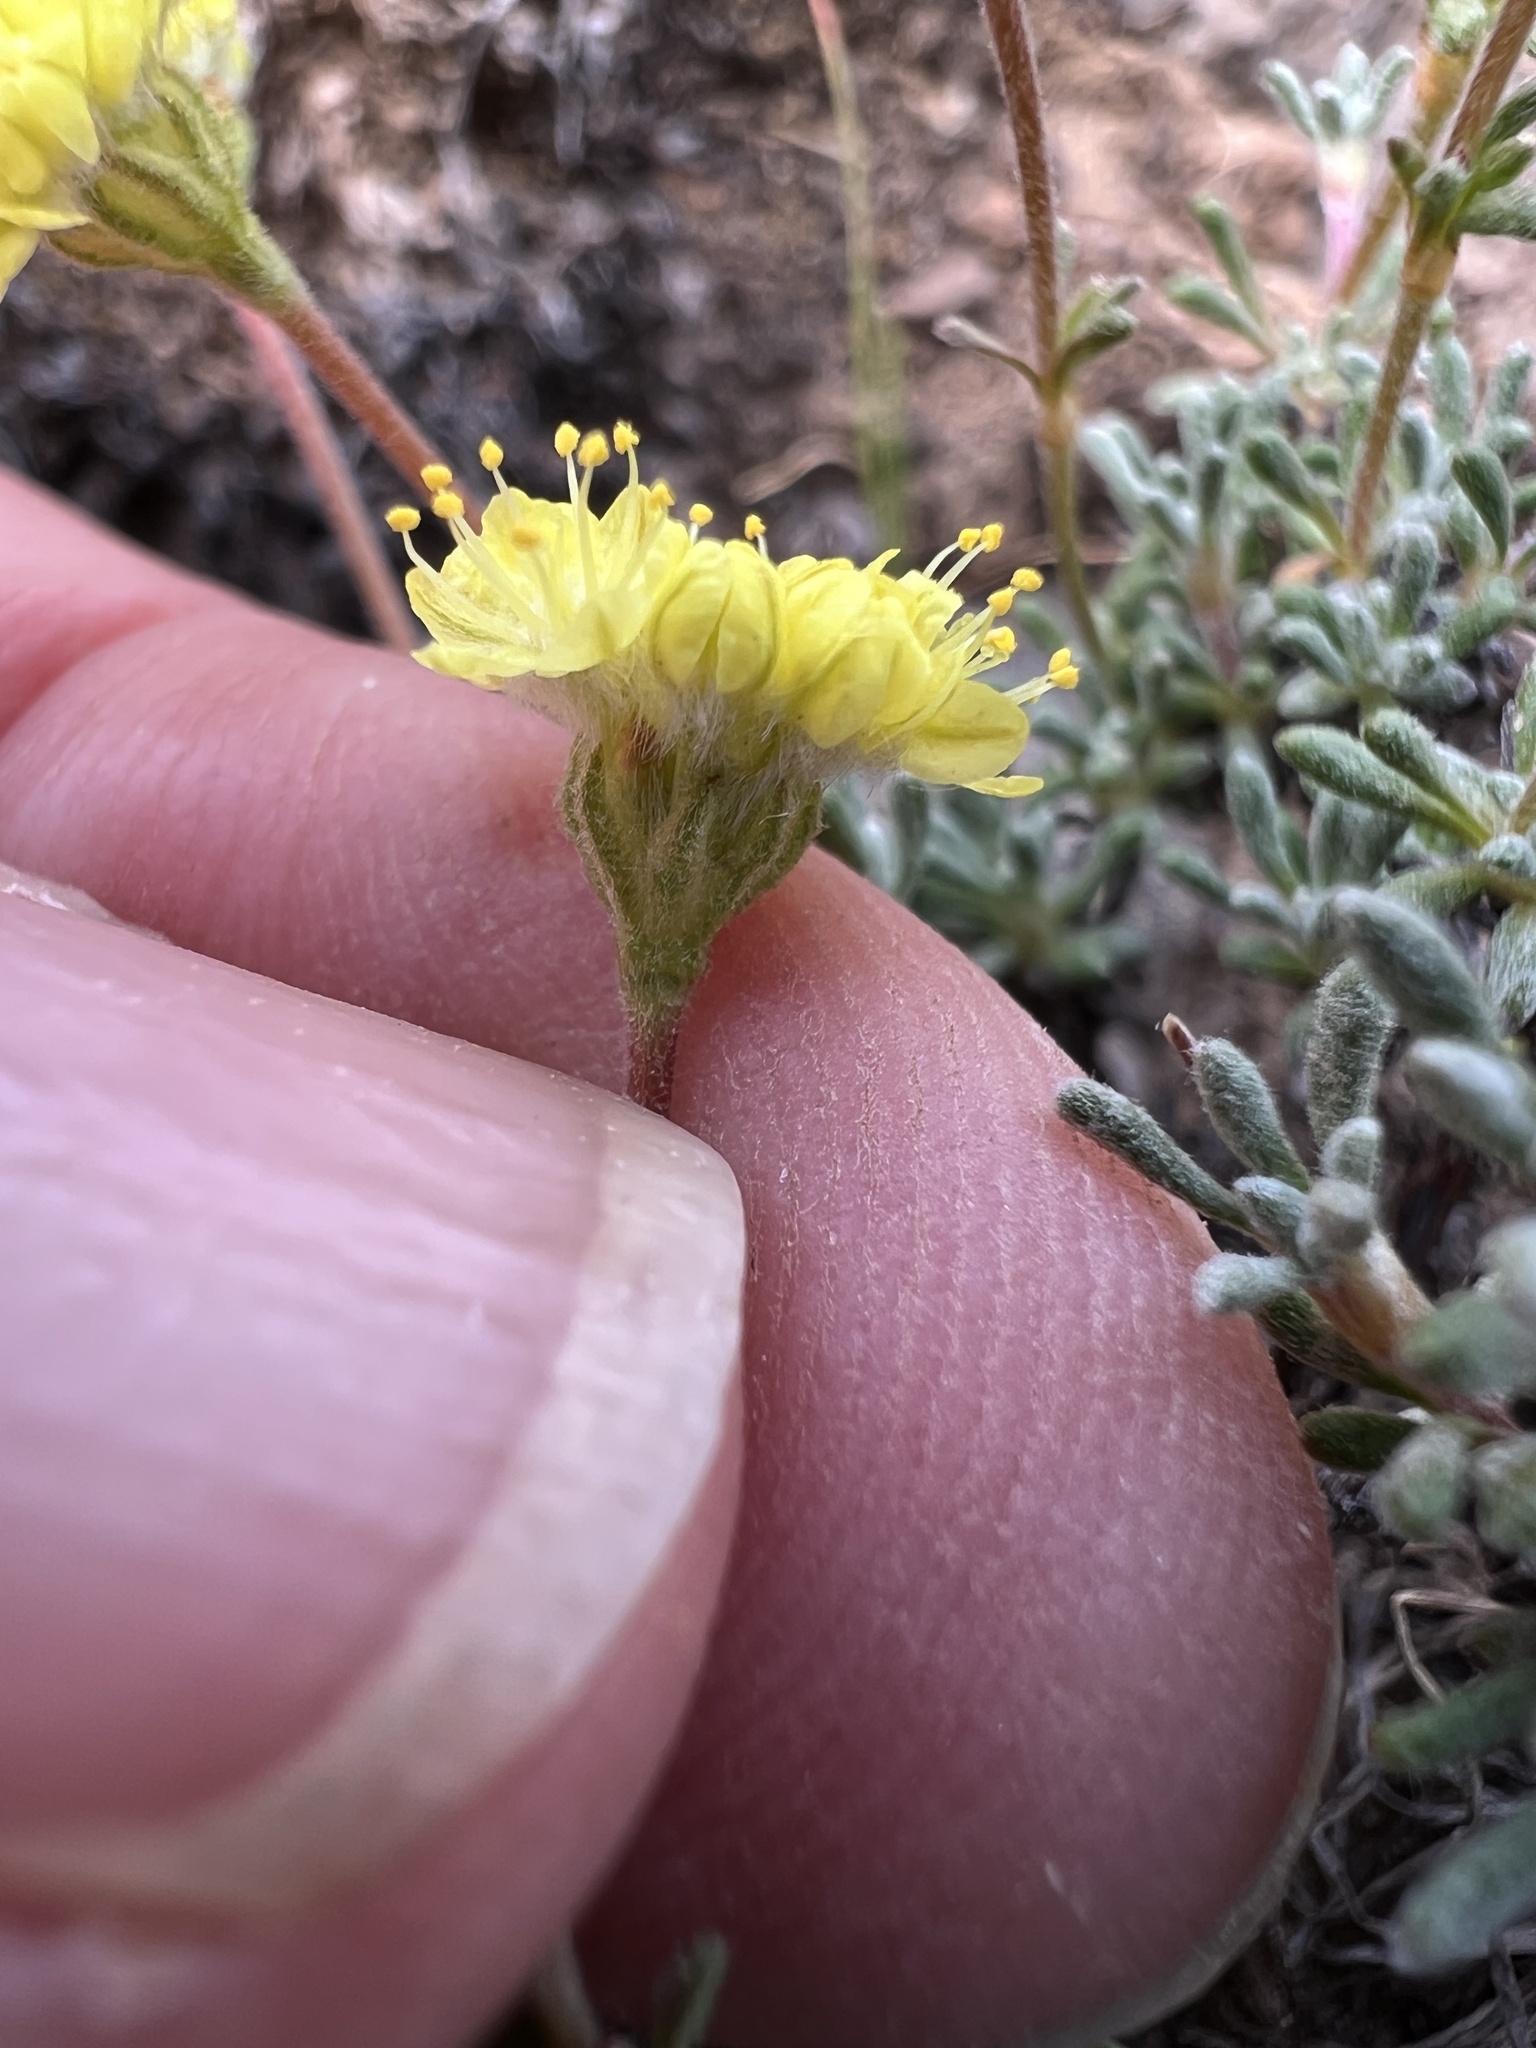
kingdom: Plantae
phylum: Tracheophyta
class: Magnoliopsida
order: Caryophyllales
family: Polygonaceae
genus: Eriogonum
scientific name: Eriogonum thymoides
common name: Thyme-leaf wild buckwheat
